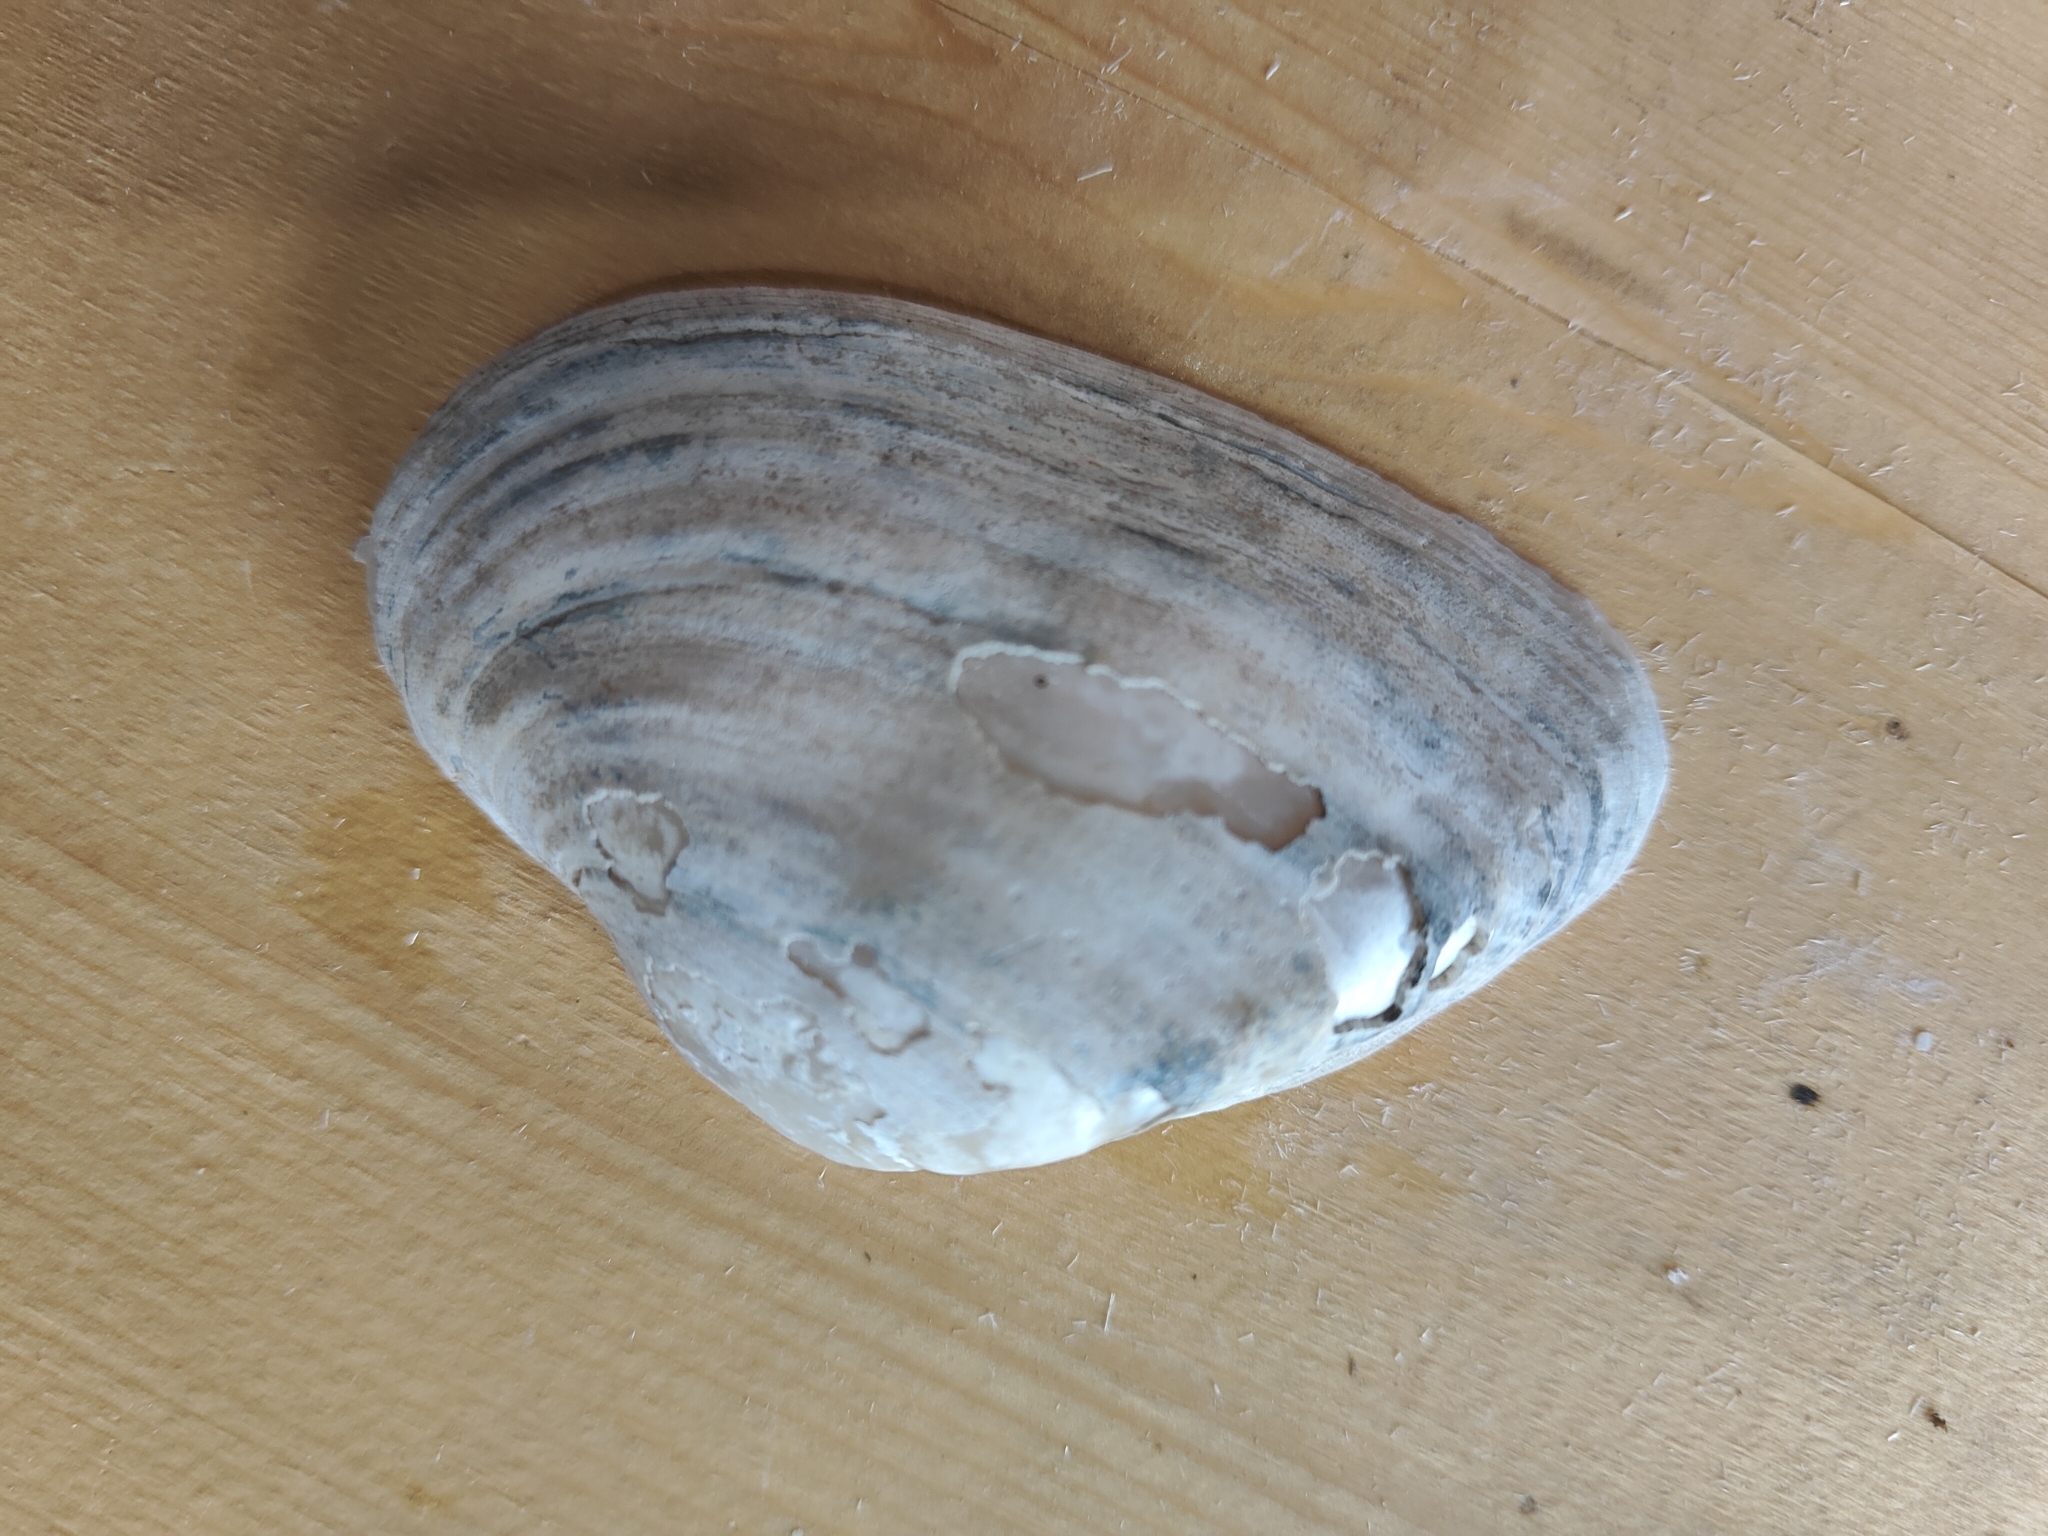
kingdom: Animalia
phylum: Mollusca
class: Bivalvia
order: Unionida
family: Unionidae
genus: Alasmidonta
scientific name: Alasmidonta marginata
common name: Elktoe
